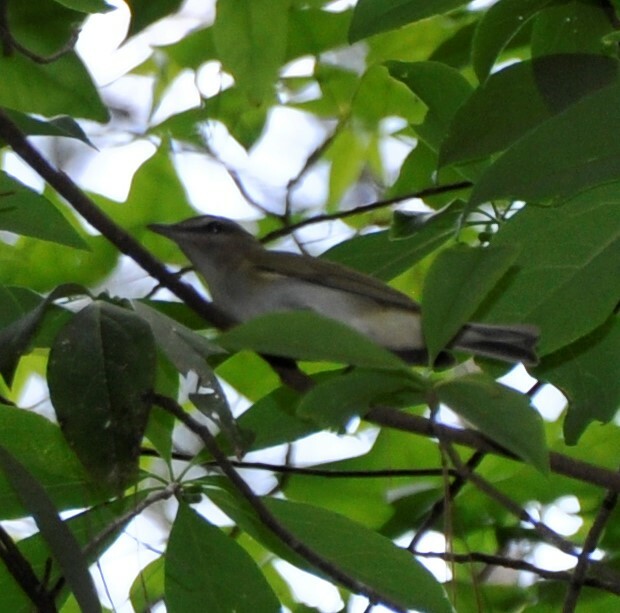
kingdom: Animalia
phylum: Chordata
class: Aves
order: Passeriformes
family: Vireonidae
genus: Vireo
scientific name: Vireo olivaceus
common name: Red-eyed vireo
